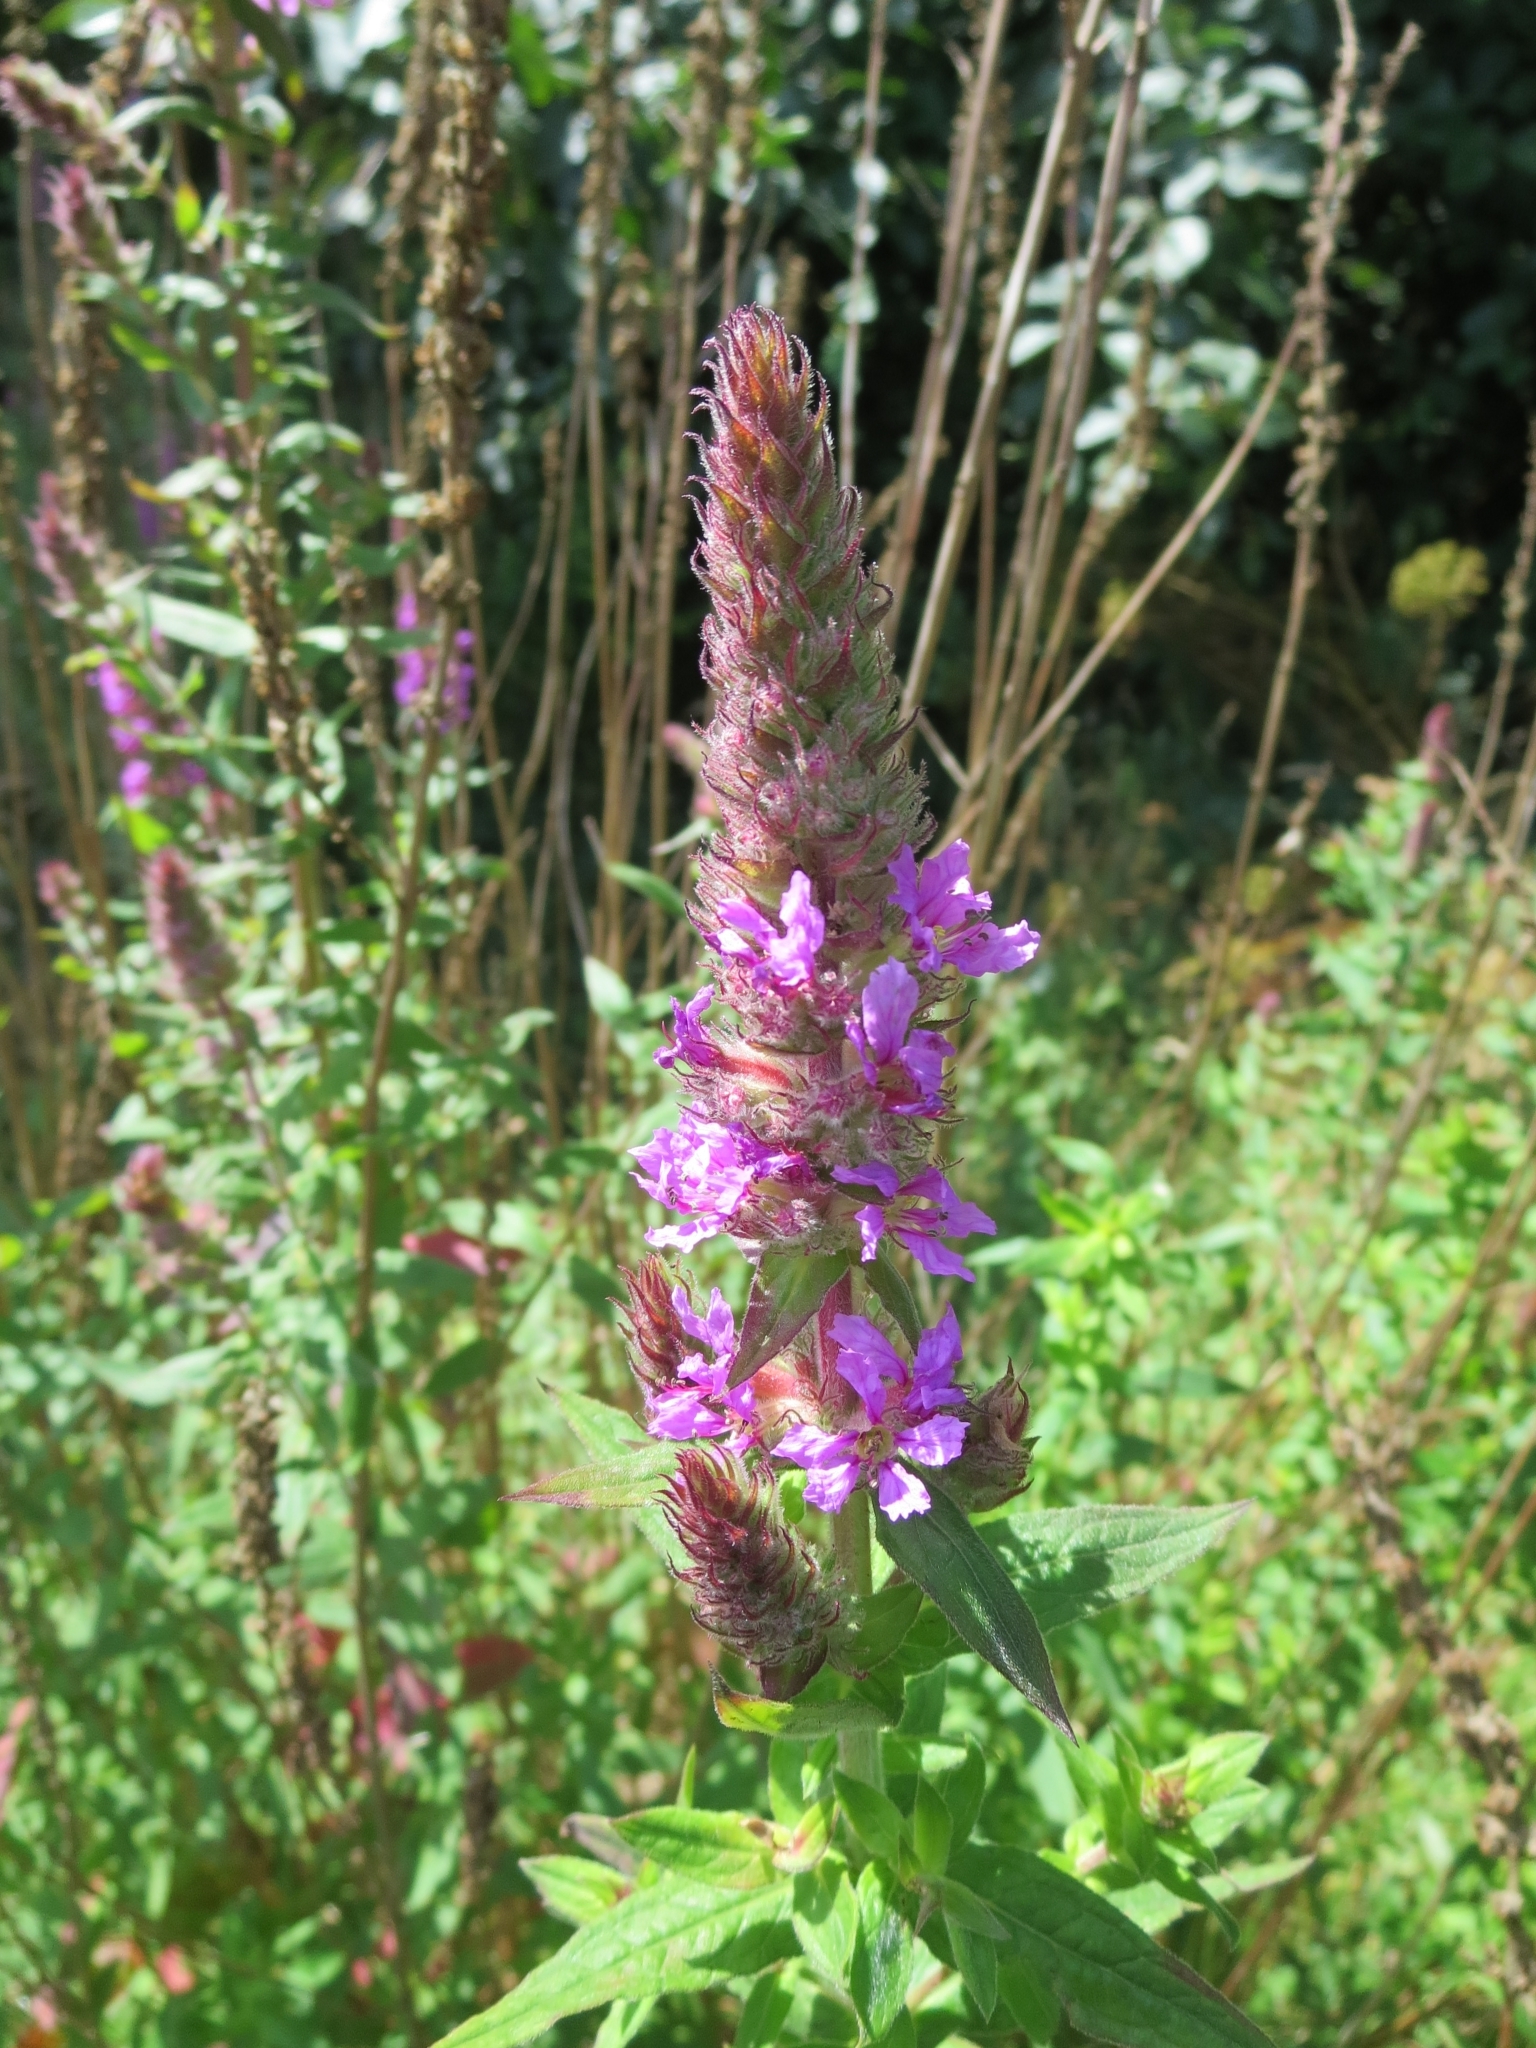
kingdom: Plantae
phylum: Tracheophyta
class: Magnoliopsida
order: Myrtales
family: Lythraceae
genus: Lythrum
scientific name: Lythrum salicaria
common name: Purple loosestrife
